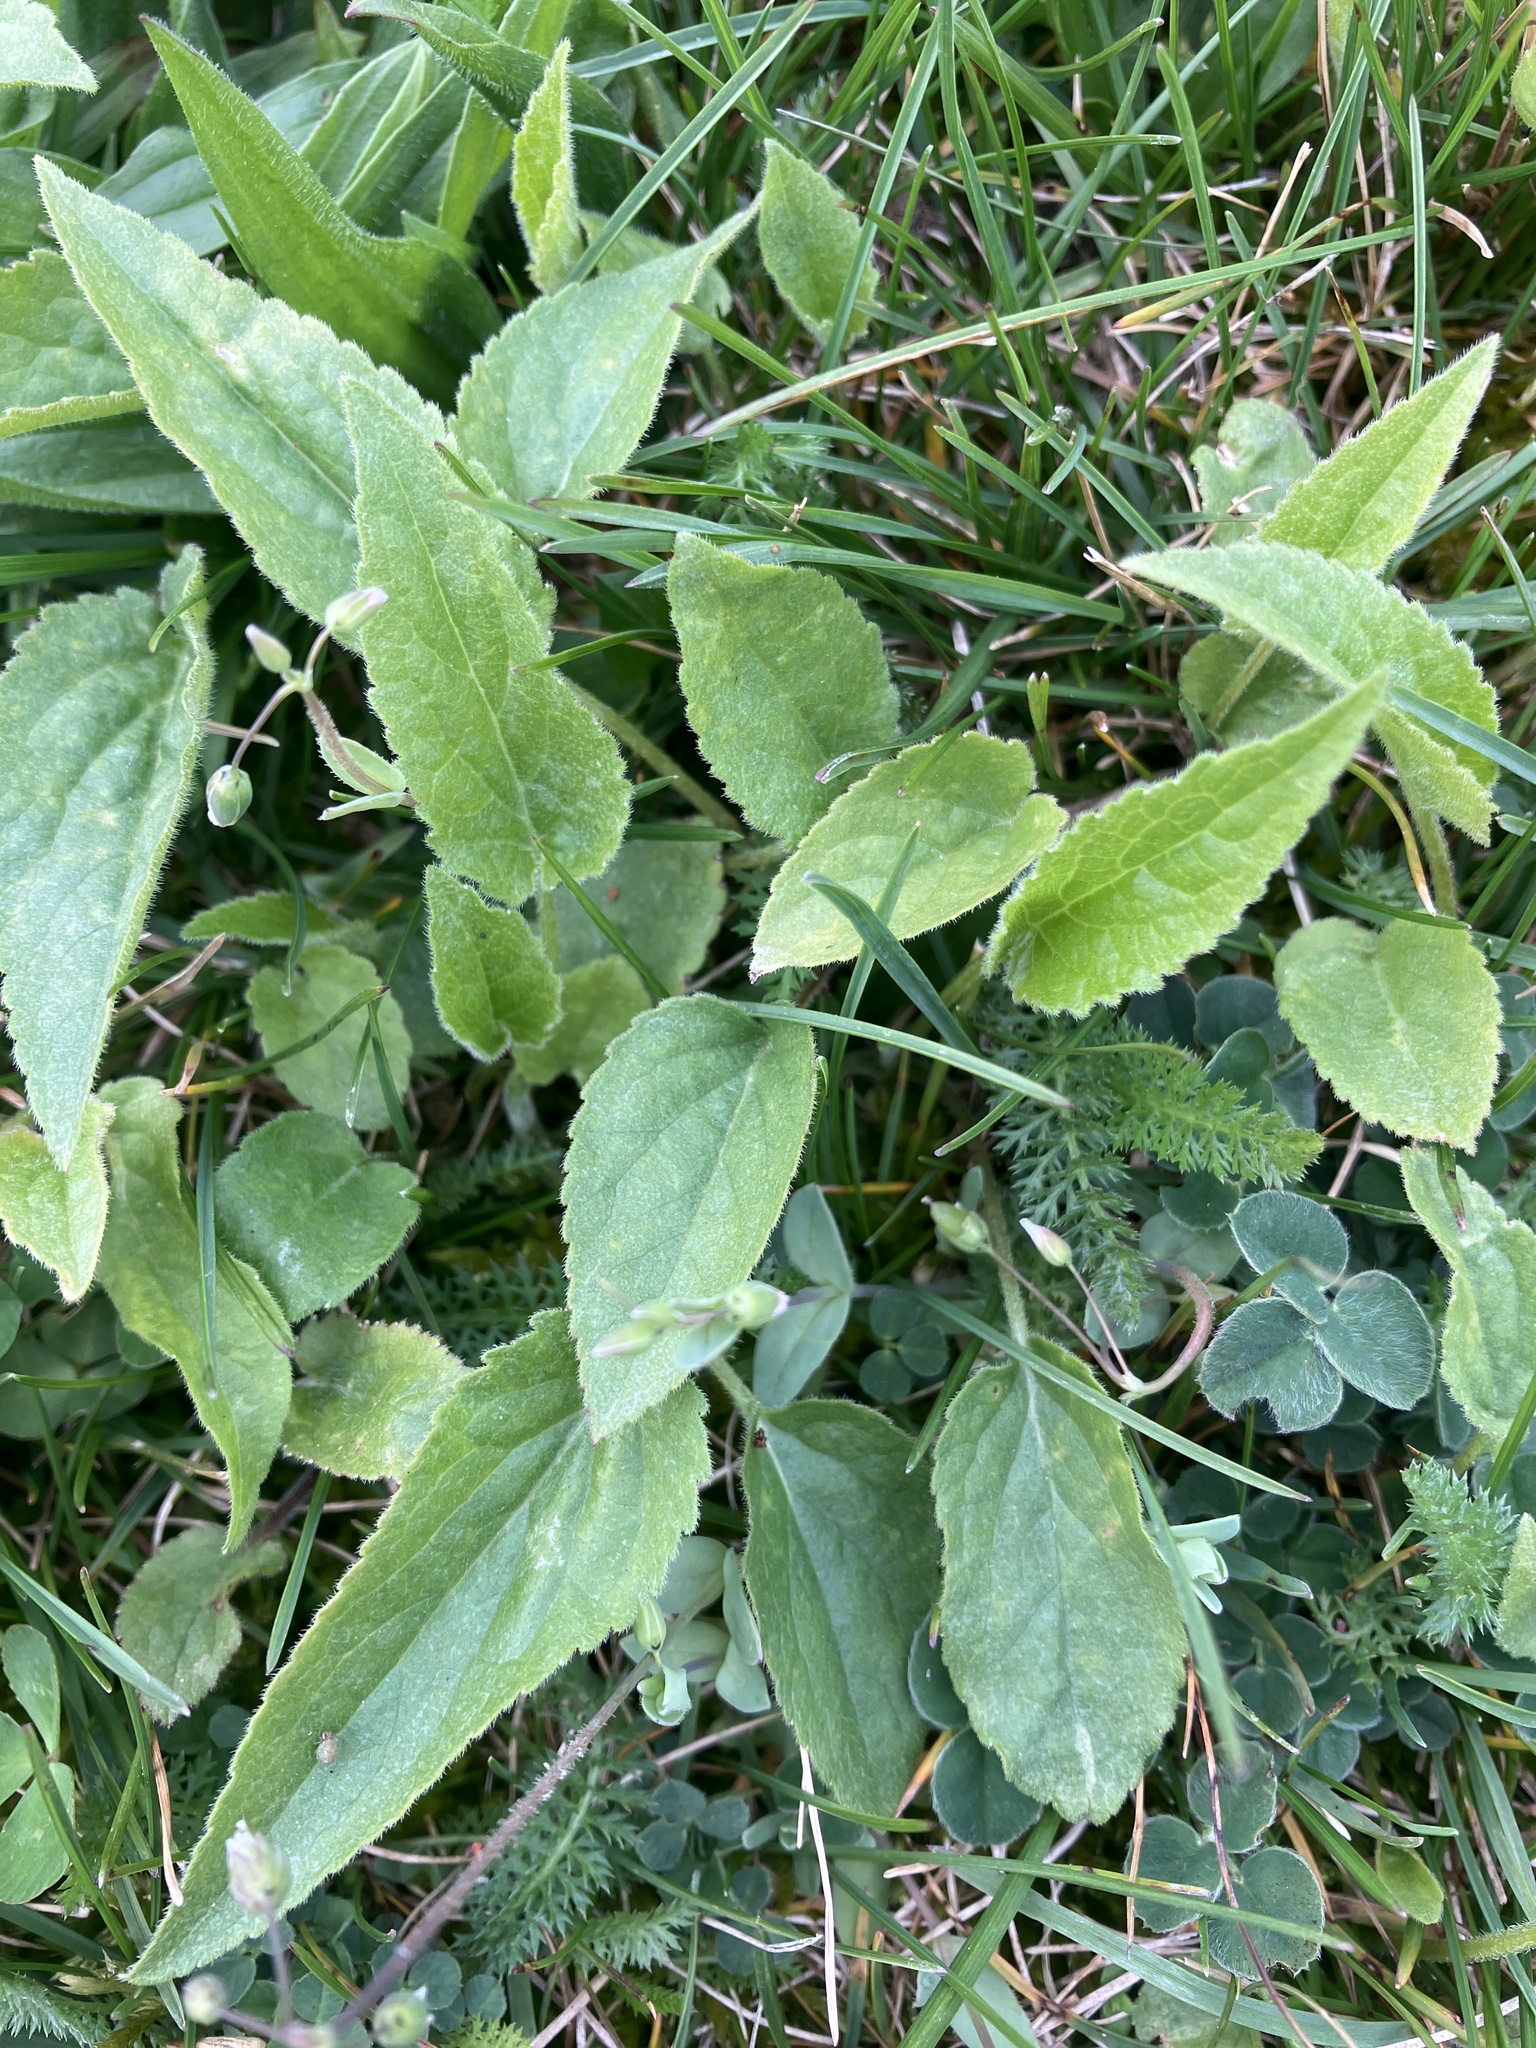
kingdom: Plantae
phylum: Tracheophyta
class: Magnoliopsida
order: Asterales
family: Campanulaceae
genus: Campanula
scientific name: Campanula rapunculoides
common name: Creeping bellflower
